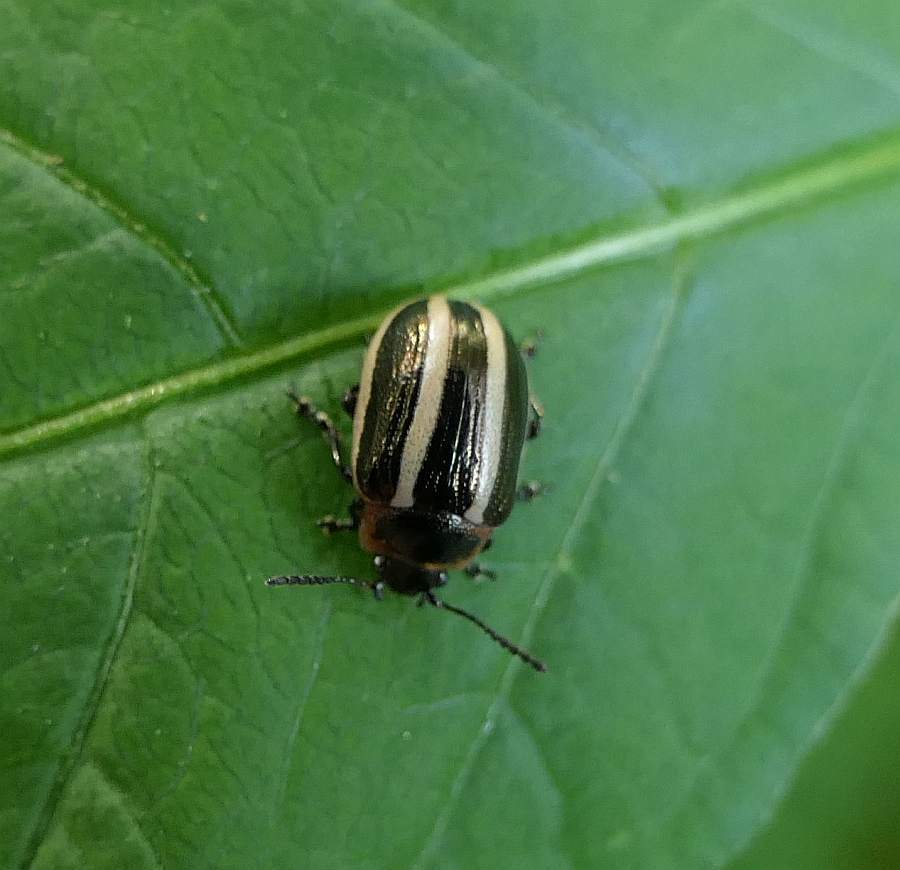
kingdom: Animalia
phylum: Arthropoda
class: Insecta
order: Coleoptera
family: Chrysomelidae
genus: Calligrapha
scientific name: Calligrapha californica
